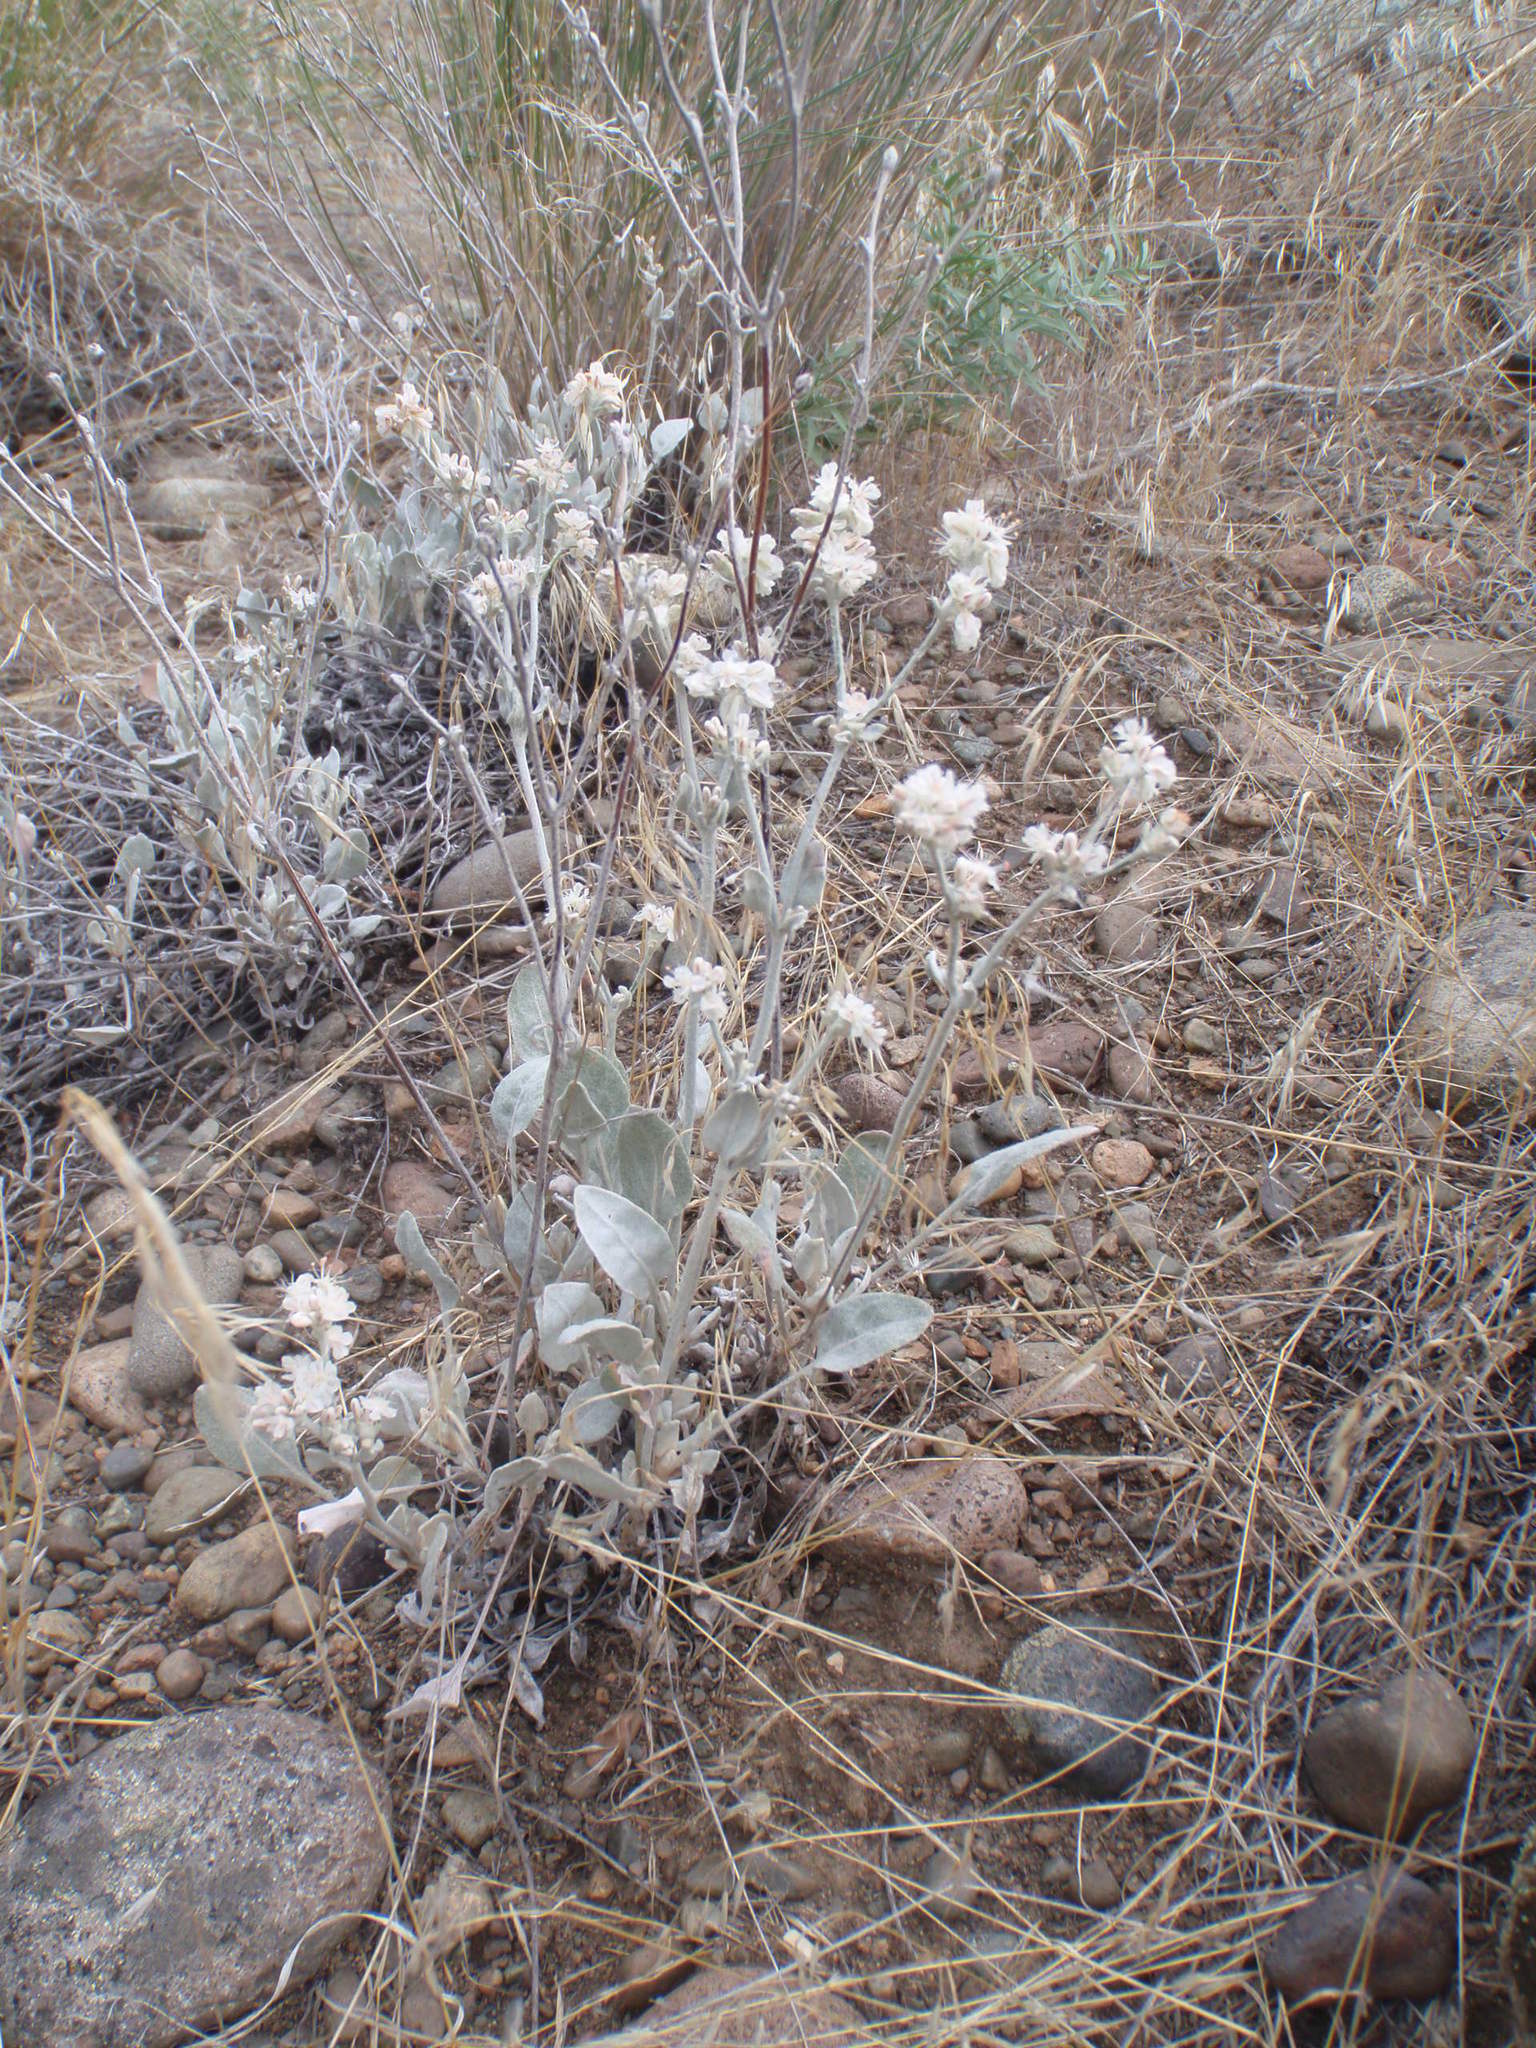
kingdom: Plantae
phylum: Tracheophyta
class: Magnoliopsida
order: Caryophyllales
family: Polygonaceae
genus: Eriogonum
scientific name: Eriogonum niveum
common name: Snow wild buckwheat
